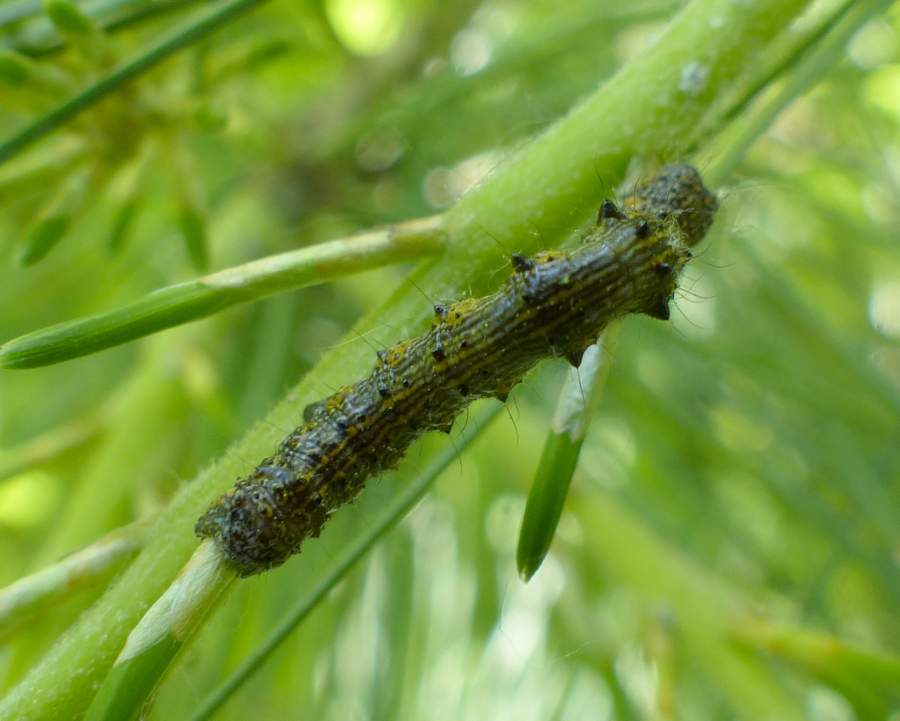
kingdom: Animalia
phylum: Arthropoda
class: Insecta
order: Lepidoptera
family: Geometridae
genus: Phigalia
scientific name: Phigalia titea
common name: Spiny looper
